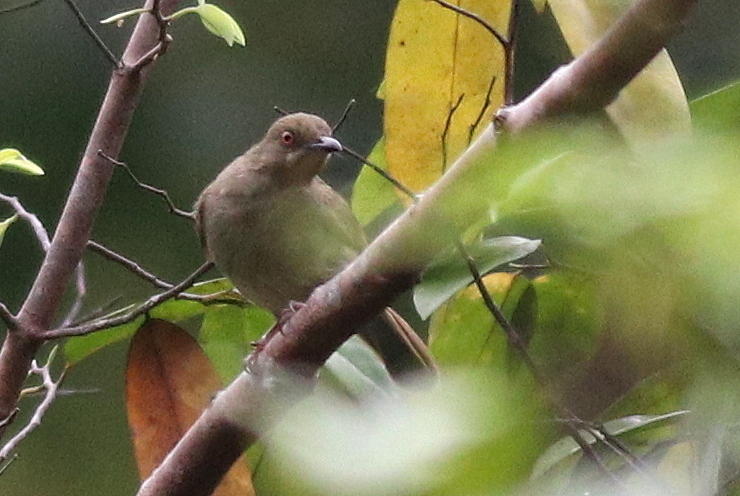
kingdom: Animalia
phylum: Chordata
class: Aves
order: Passeriformes
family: Pycnonotidae
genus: Pycnonotus
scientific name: Pycnonotus brunneus
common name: Asian red-eyed bulbul
